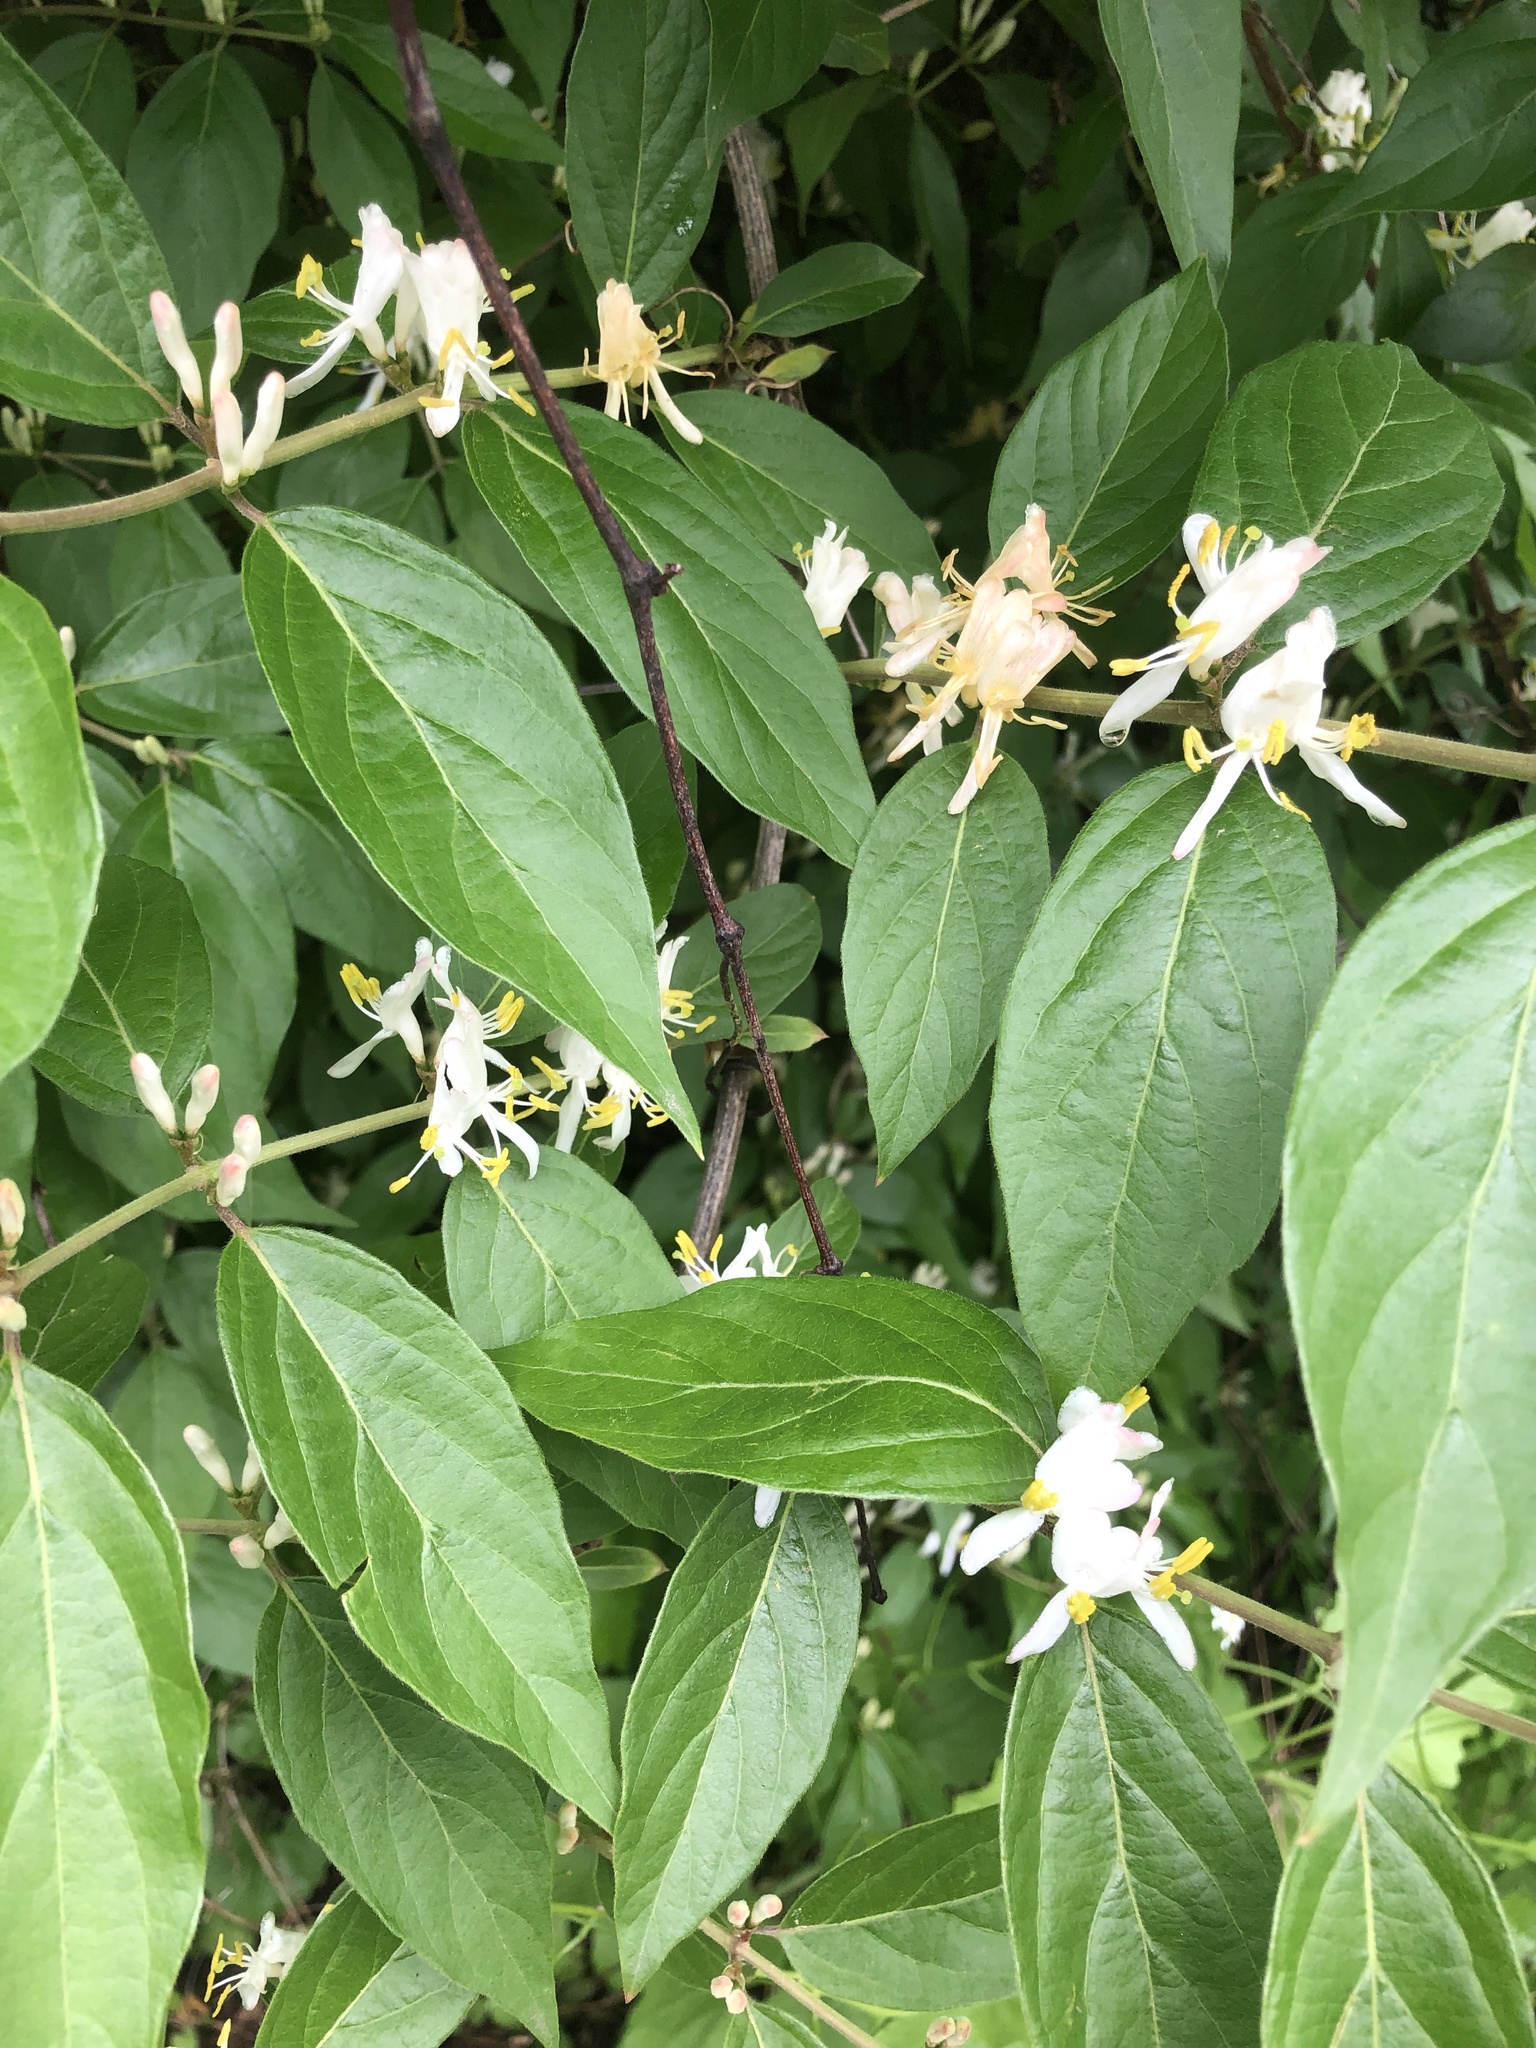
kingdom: Plantae
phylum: Tracheophyta
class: Magnoliopsida
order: Dipsacales
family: Caprifoliaceae
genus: Lonicera
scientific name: Lonicera maackii
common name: Amur honeysuckle
